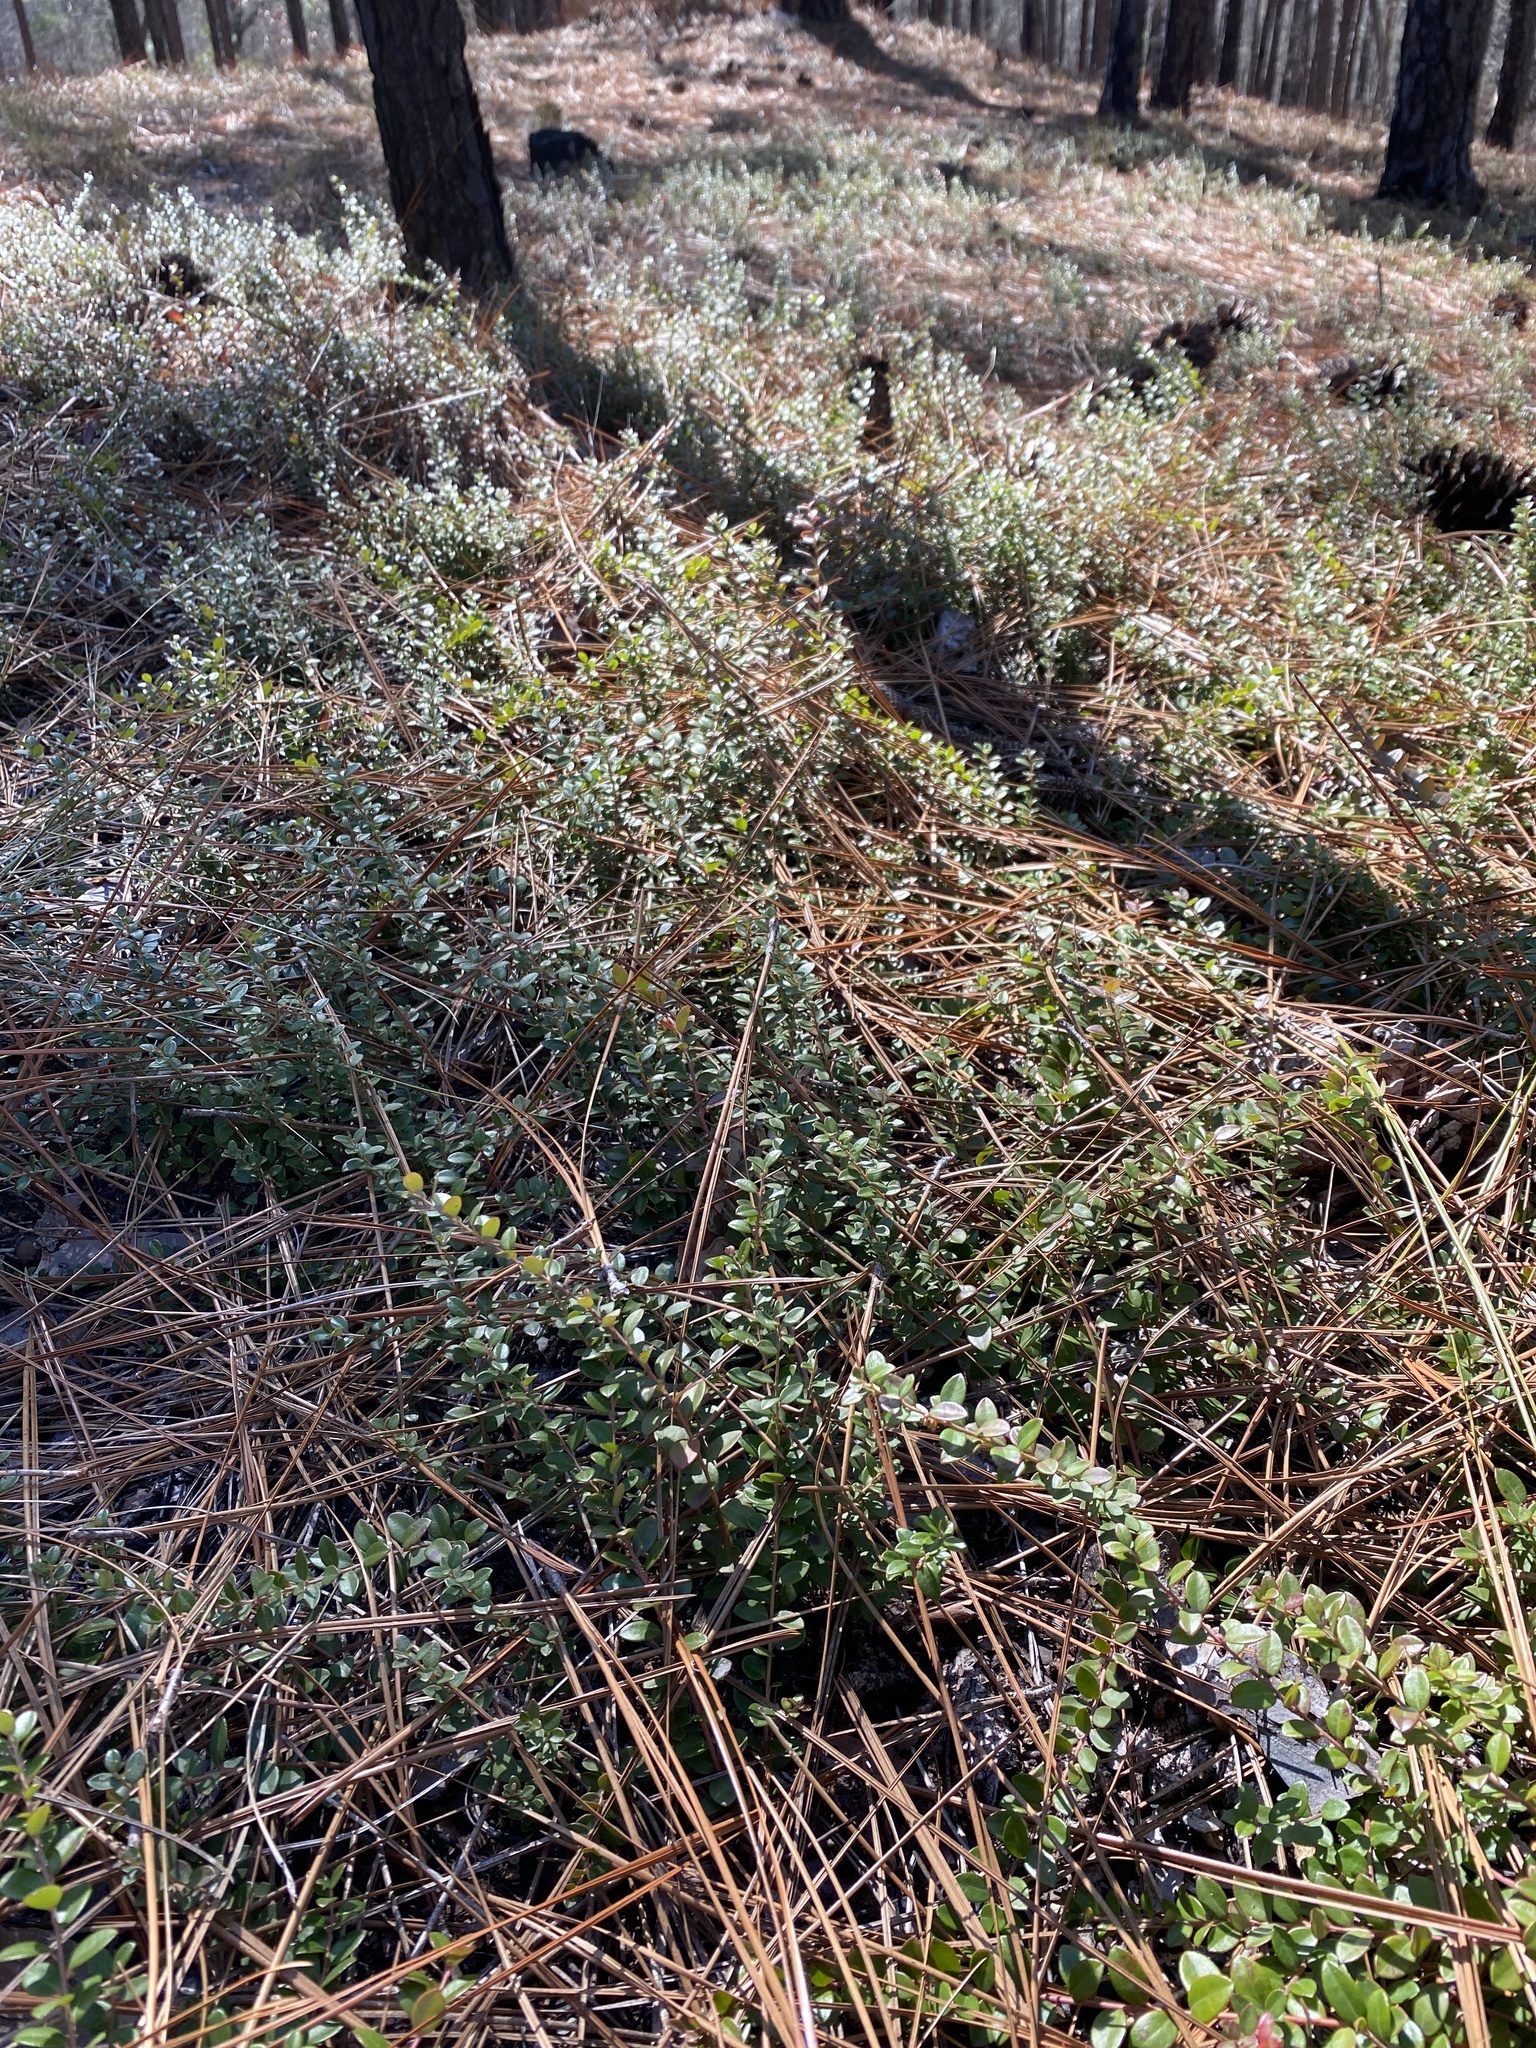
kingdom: Plantae
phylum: Tracheophyta
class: Magnoliopsida
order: Ericales
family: Ericaceae
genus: Vaccinium
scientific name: Vaccinium crassifolium
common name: Creeping blueberry
